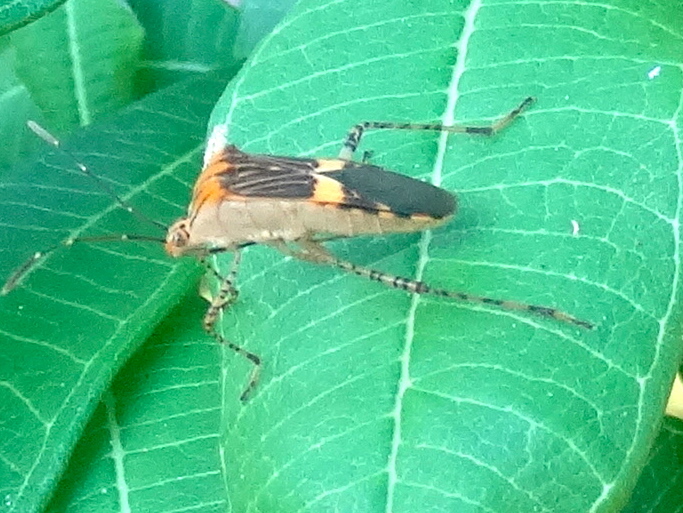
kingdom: Animalia
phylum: Arthropoda
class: Insecta
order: Hemiptera
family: Coreidae
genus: Hypselonotus
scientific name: Hypselonotus lineatus
